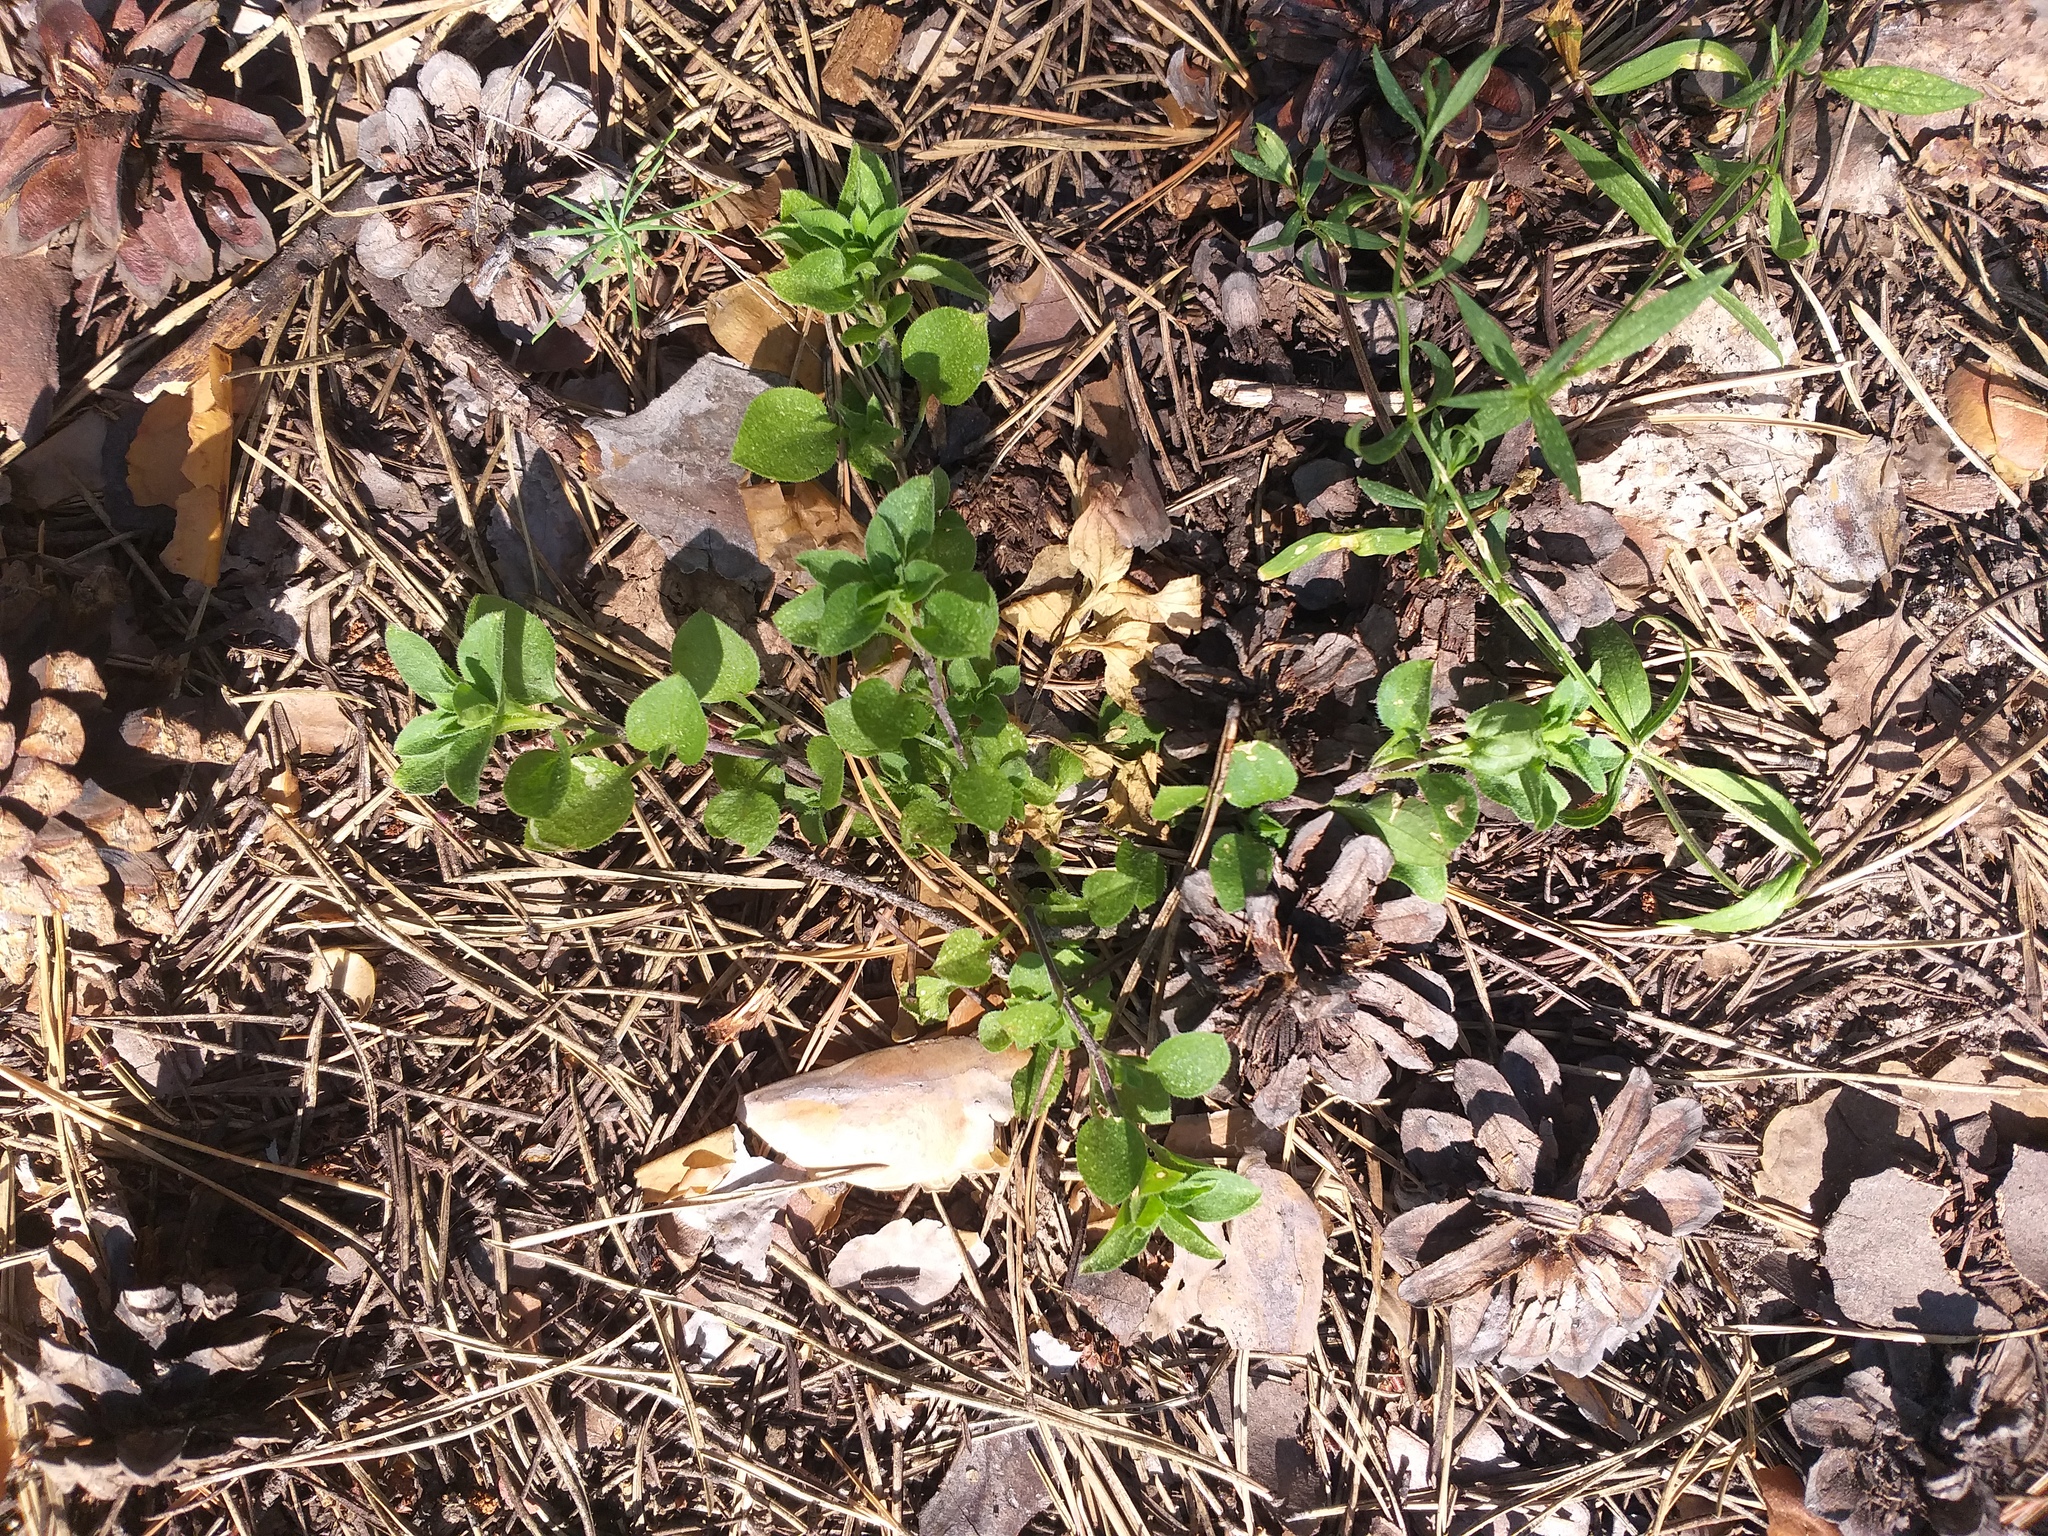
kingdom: Plantae
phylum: Tracheophyta
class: Magnoliopsida
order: Caryophyllales
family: Caryophyllaceae
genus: Moehringia
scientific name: Moehringia trinervia
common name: Three-nerved sandwort
